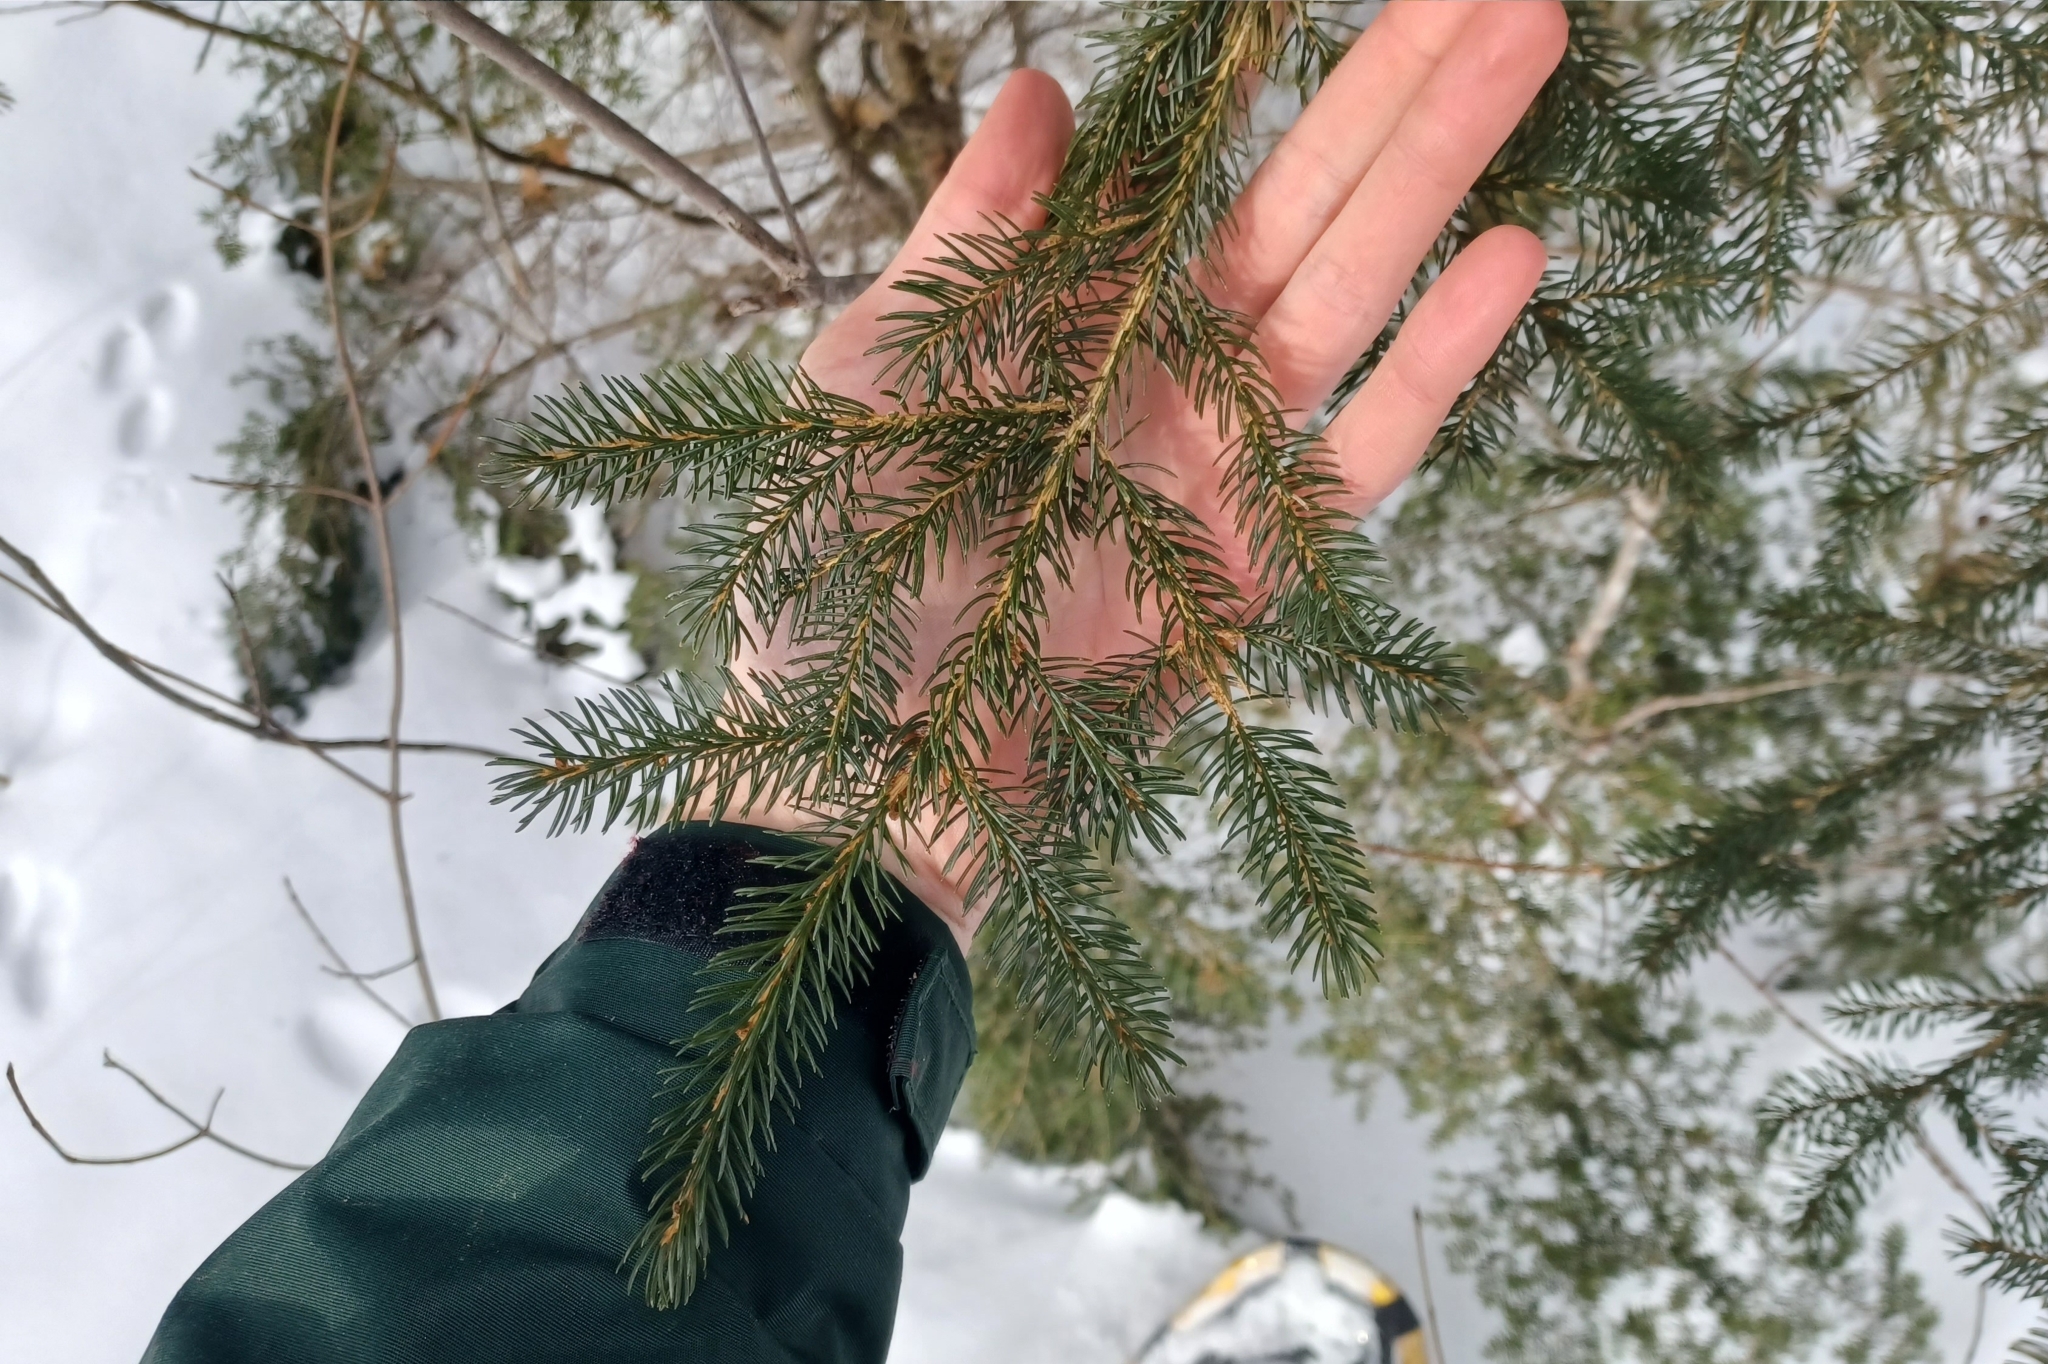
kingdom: Plantae
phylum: Tracheophyta
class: Pinopsida
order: Pinales
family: Pinaceae
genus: Picea
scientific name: Picea rubens
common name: Red spruce
